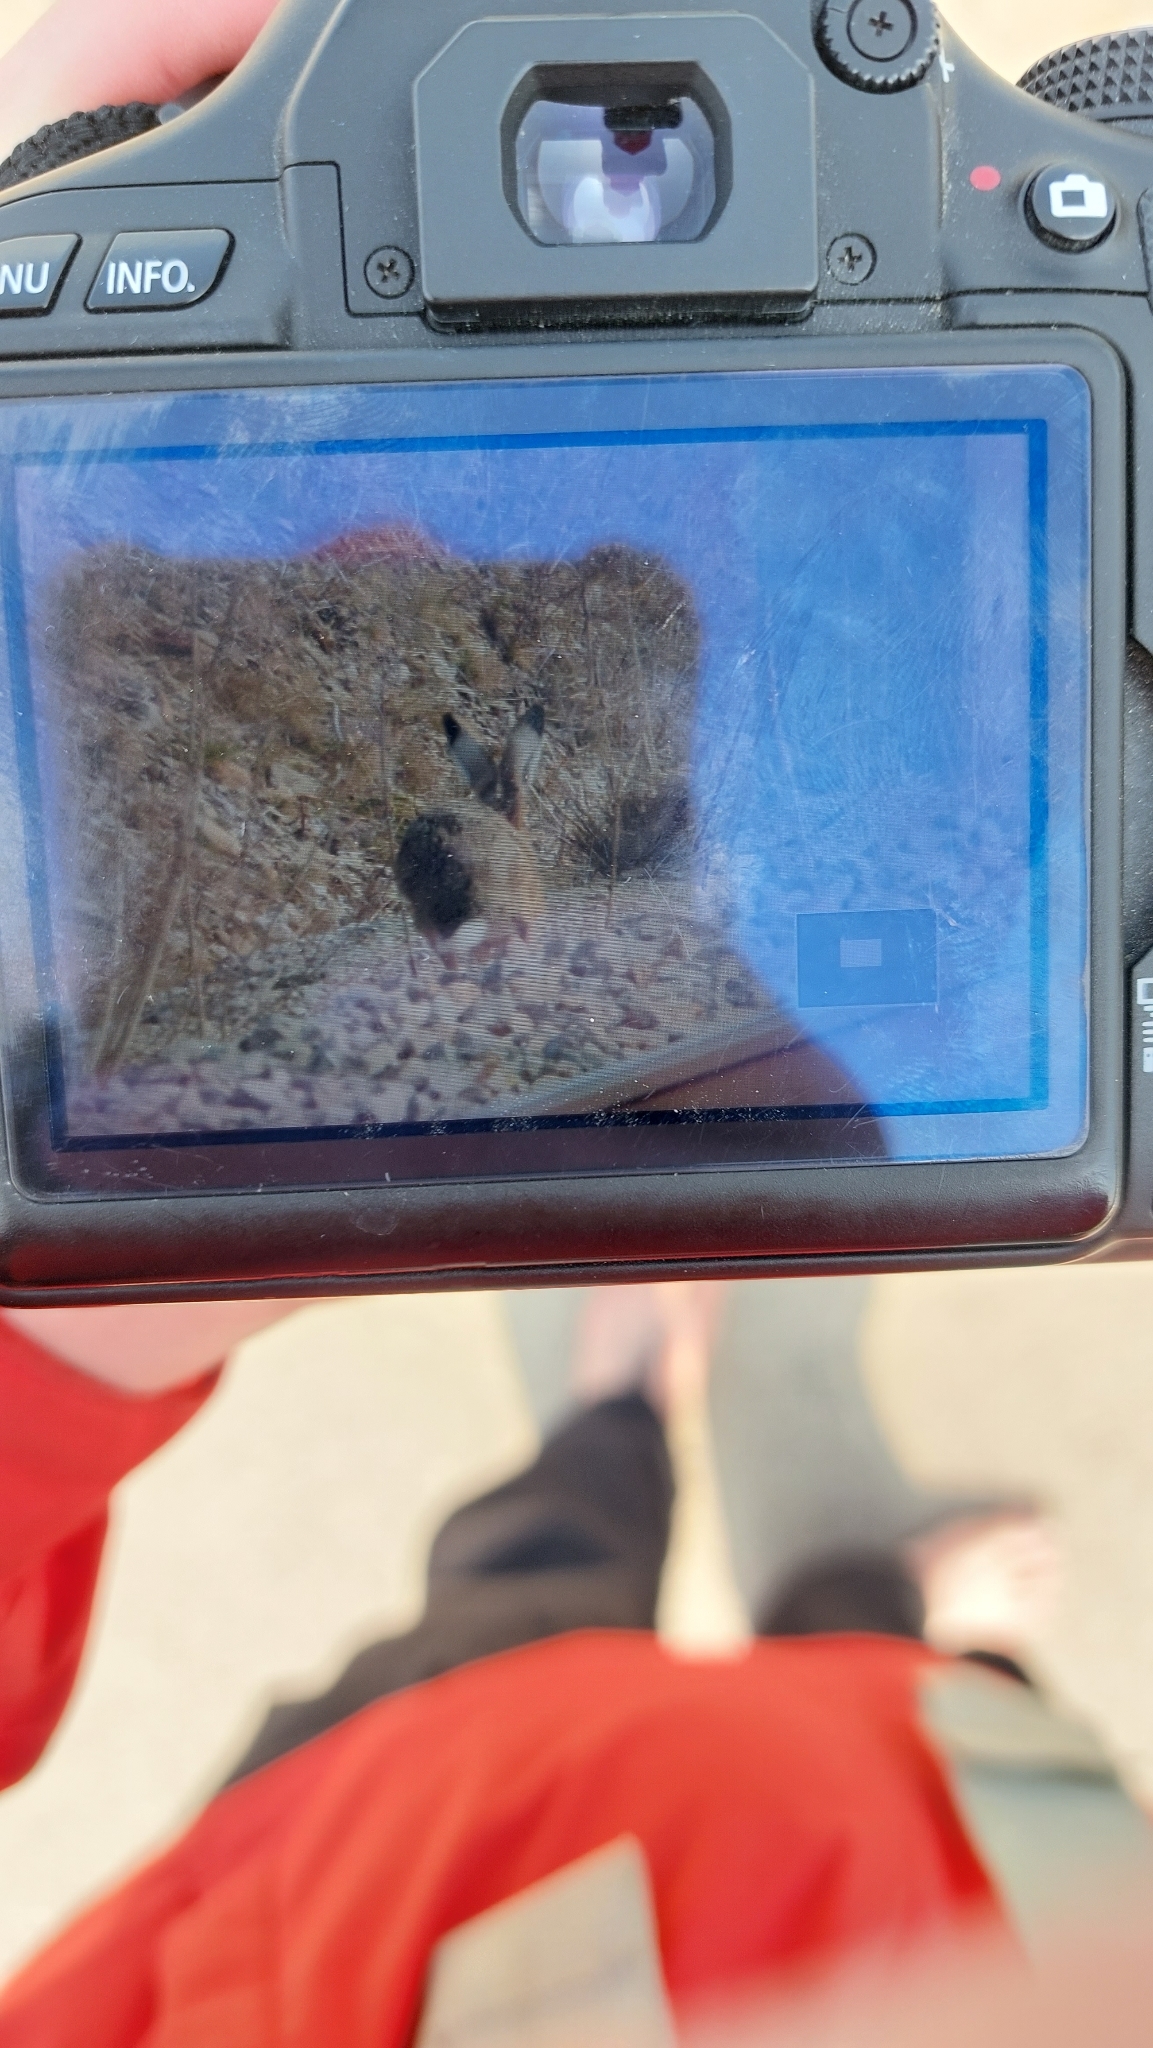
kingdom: Animalia
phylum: Chordata
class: Mammalia
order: Lagomorpha
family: Leporidae
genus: Lepus
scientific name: Lepus europaeus
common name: European hare
